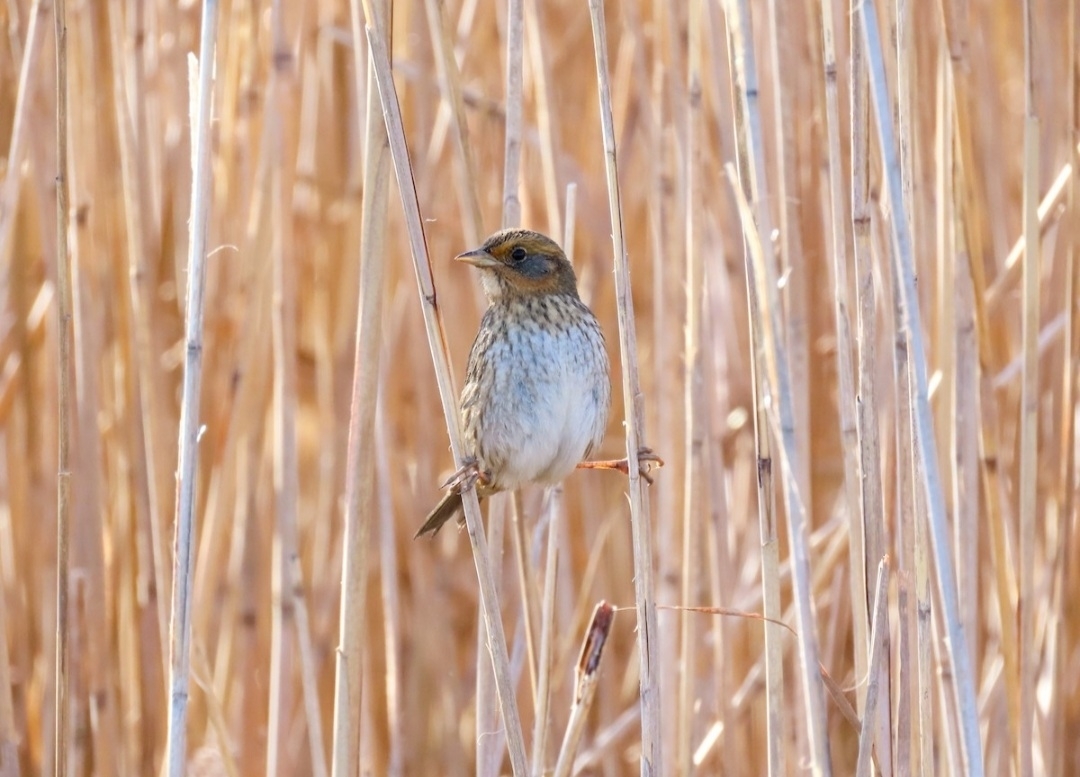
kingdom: Animalia
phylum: Chordata
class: Aves
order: Passeriformes
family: Passerellidae
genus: Ammospiza
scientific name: Ammospiza caudacuta
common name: Saltmarsh sparrow
